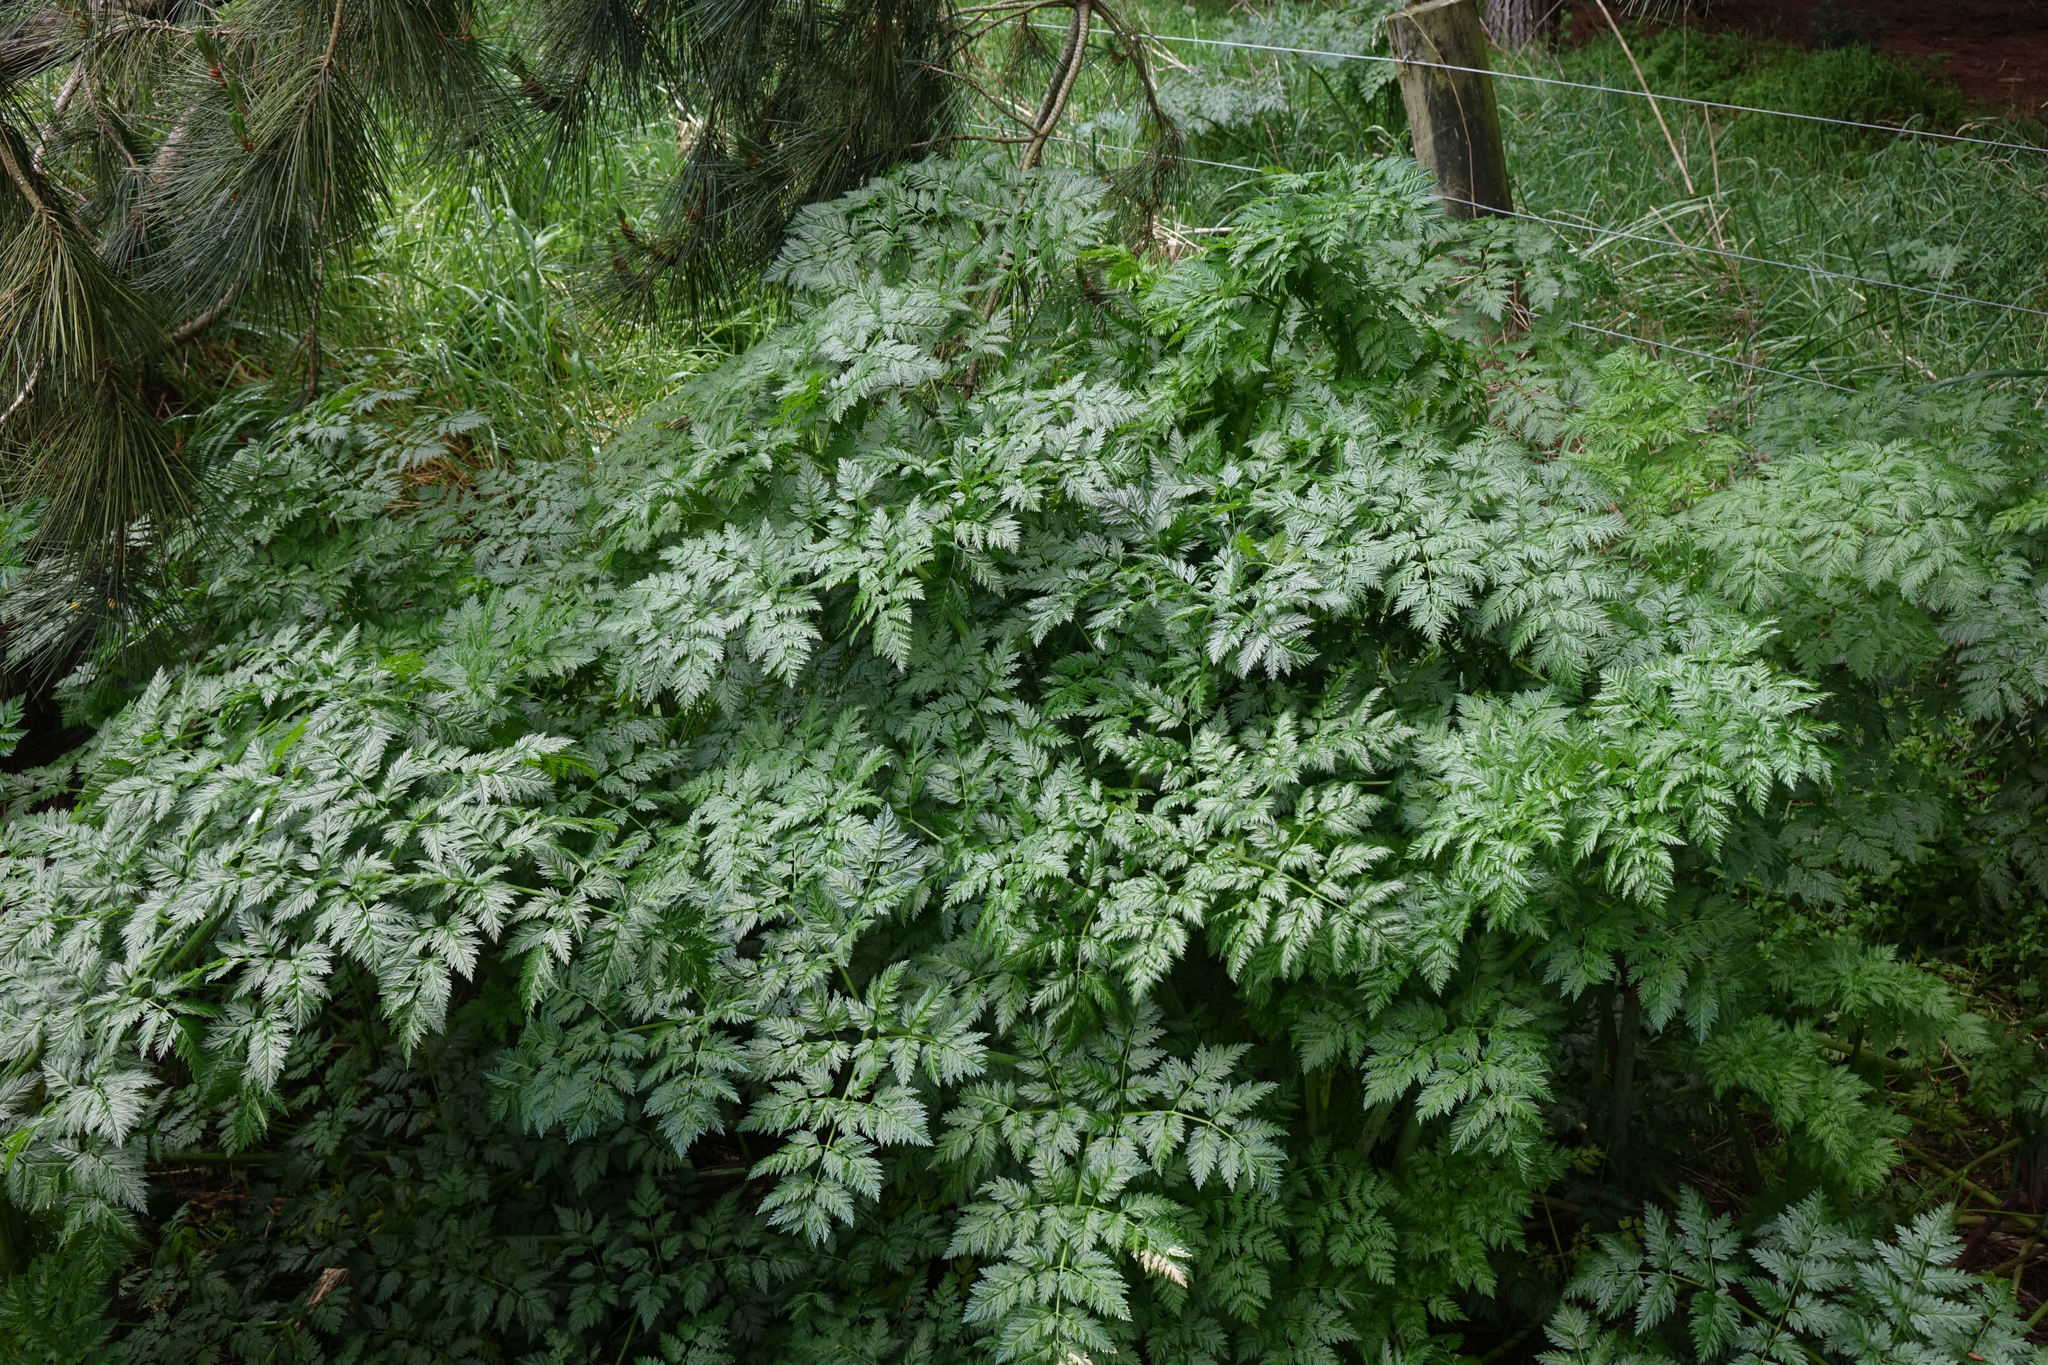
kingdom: Plantae
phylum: Tracheophyta
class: Magnoliopsida
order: Apiales
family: Apiaceae
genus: Conium
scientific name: Conium maculatum
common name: Hemlock
